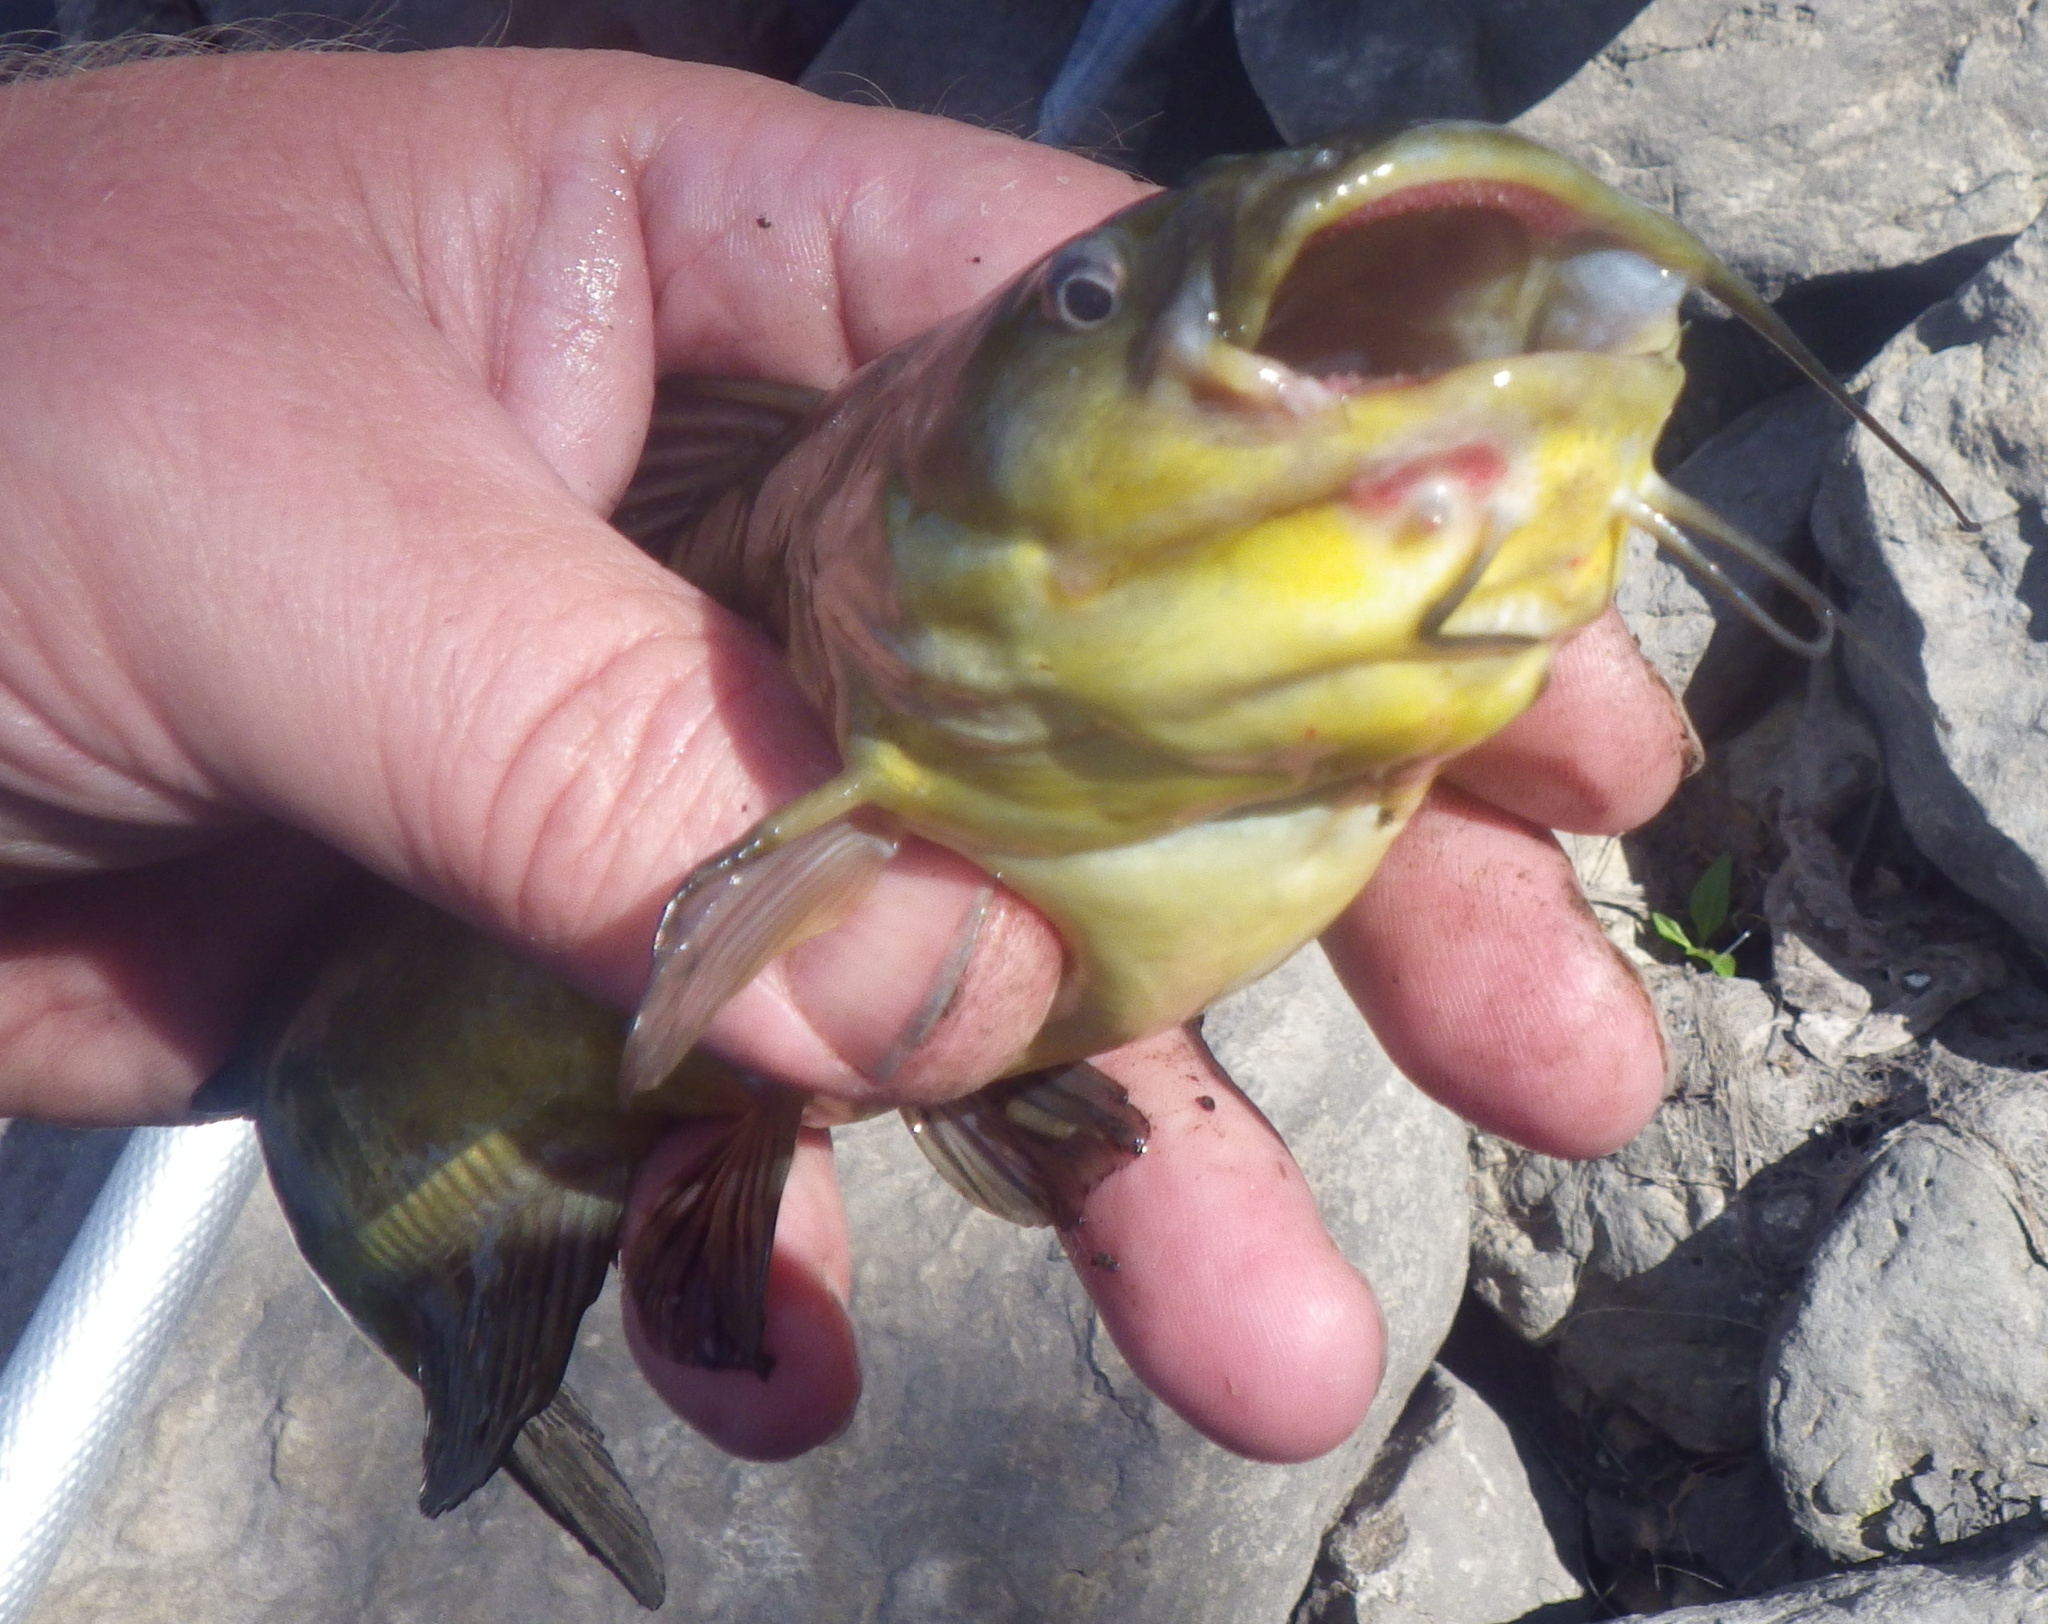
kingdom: Animalia
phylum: Chordata
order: Siluriformes
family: Ictaluridae
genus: Ameiurus
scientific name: Ameiurus melas
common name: Black bullhead
